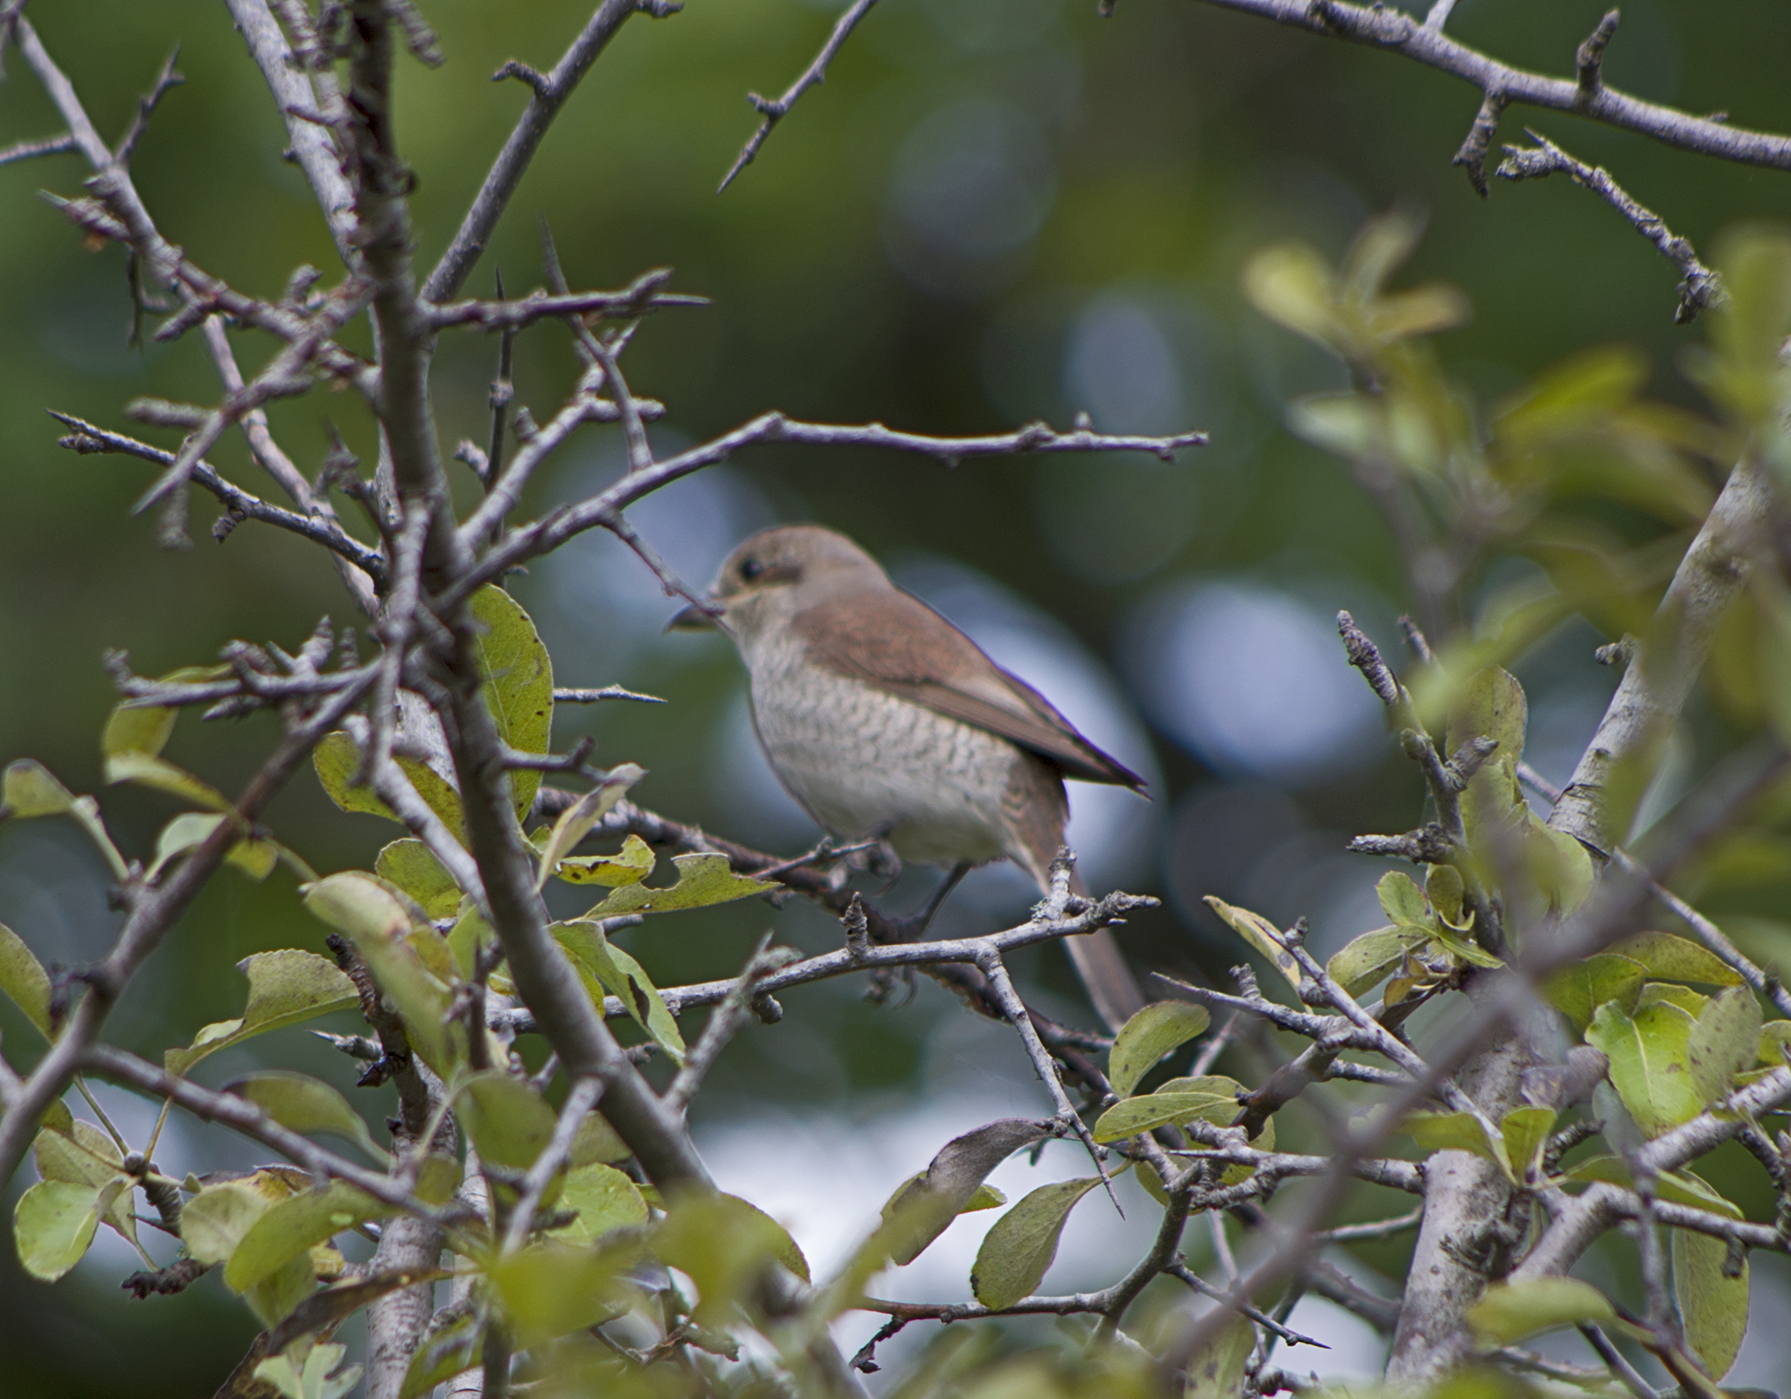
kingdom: Animalia
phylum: Chordata
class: Aves
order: Passeriformes
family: Laniidae
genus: Lanius
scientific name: Lanius collurio
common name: Red-backed shrike
